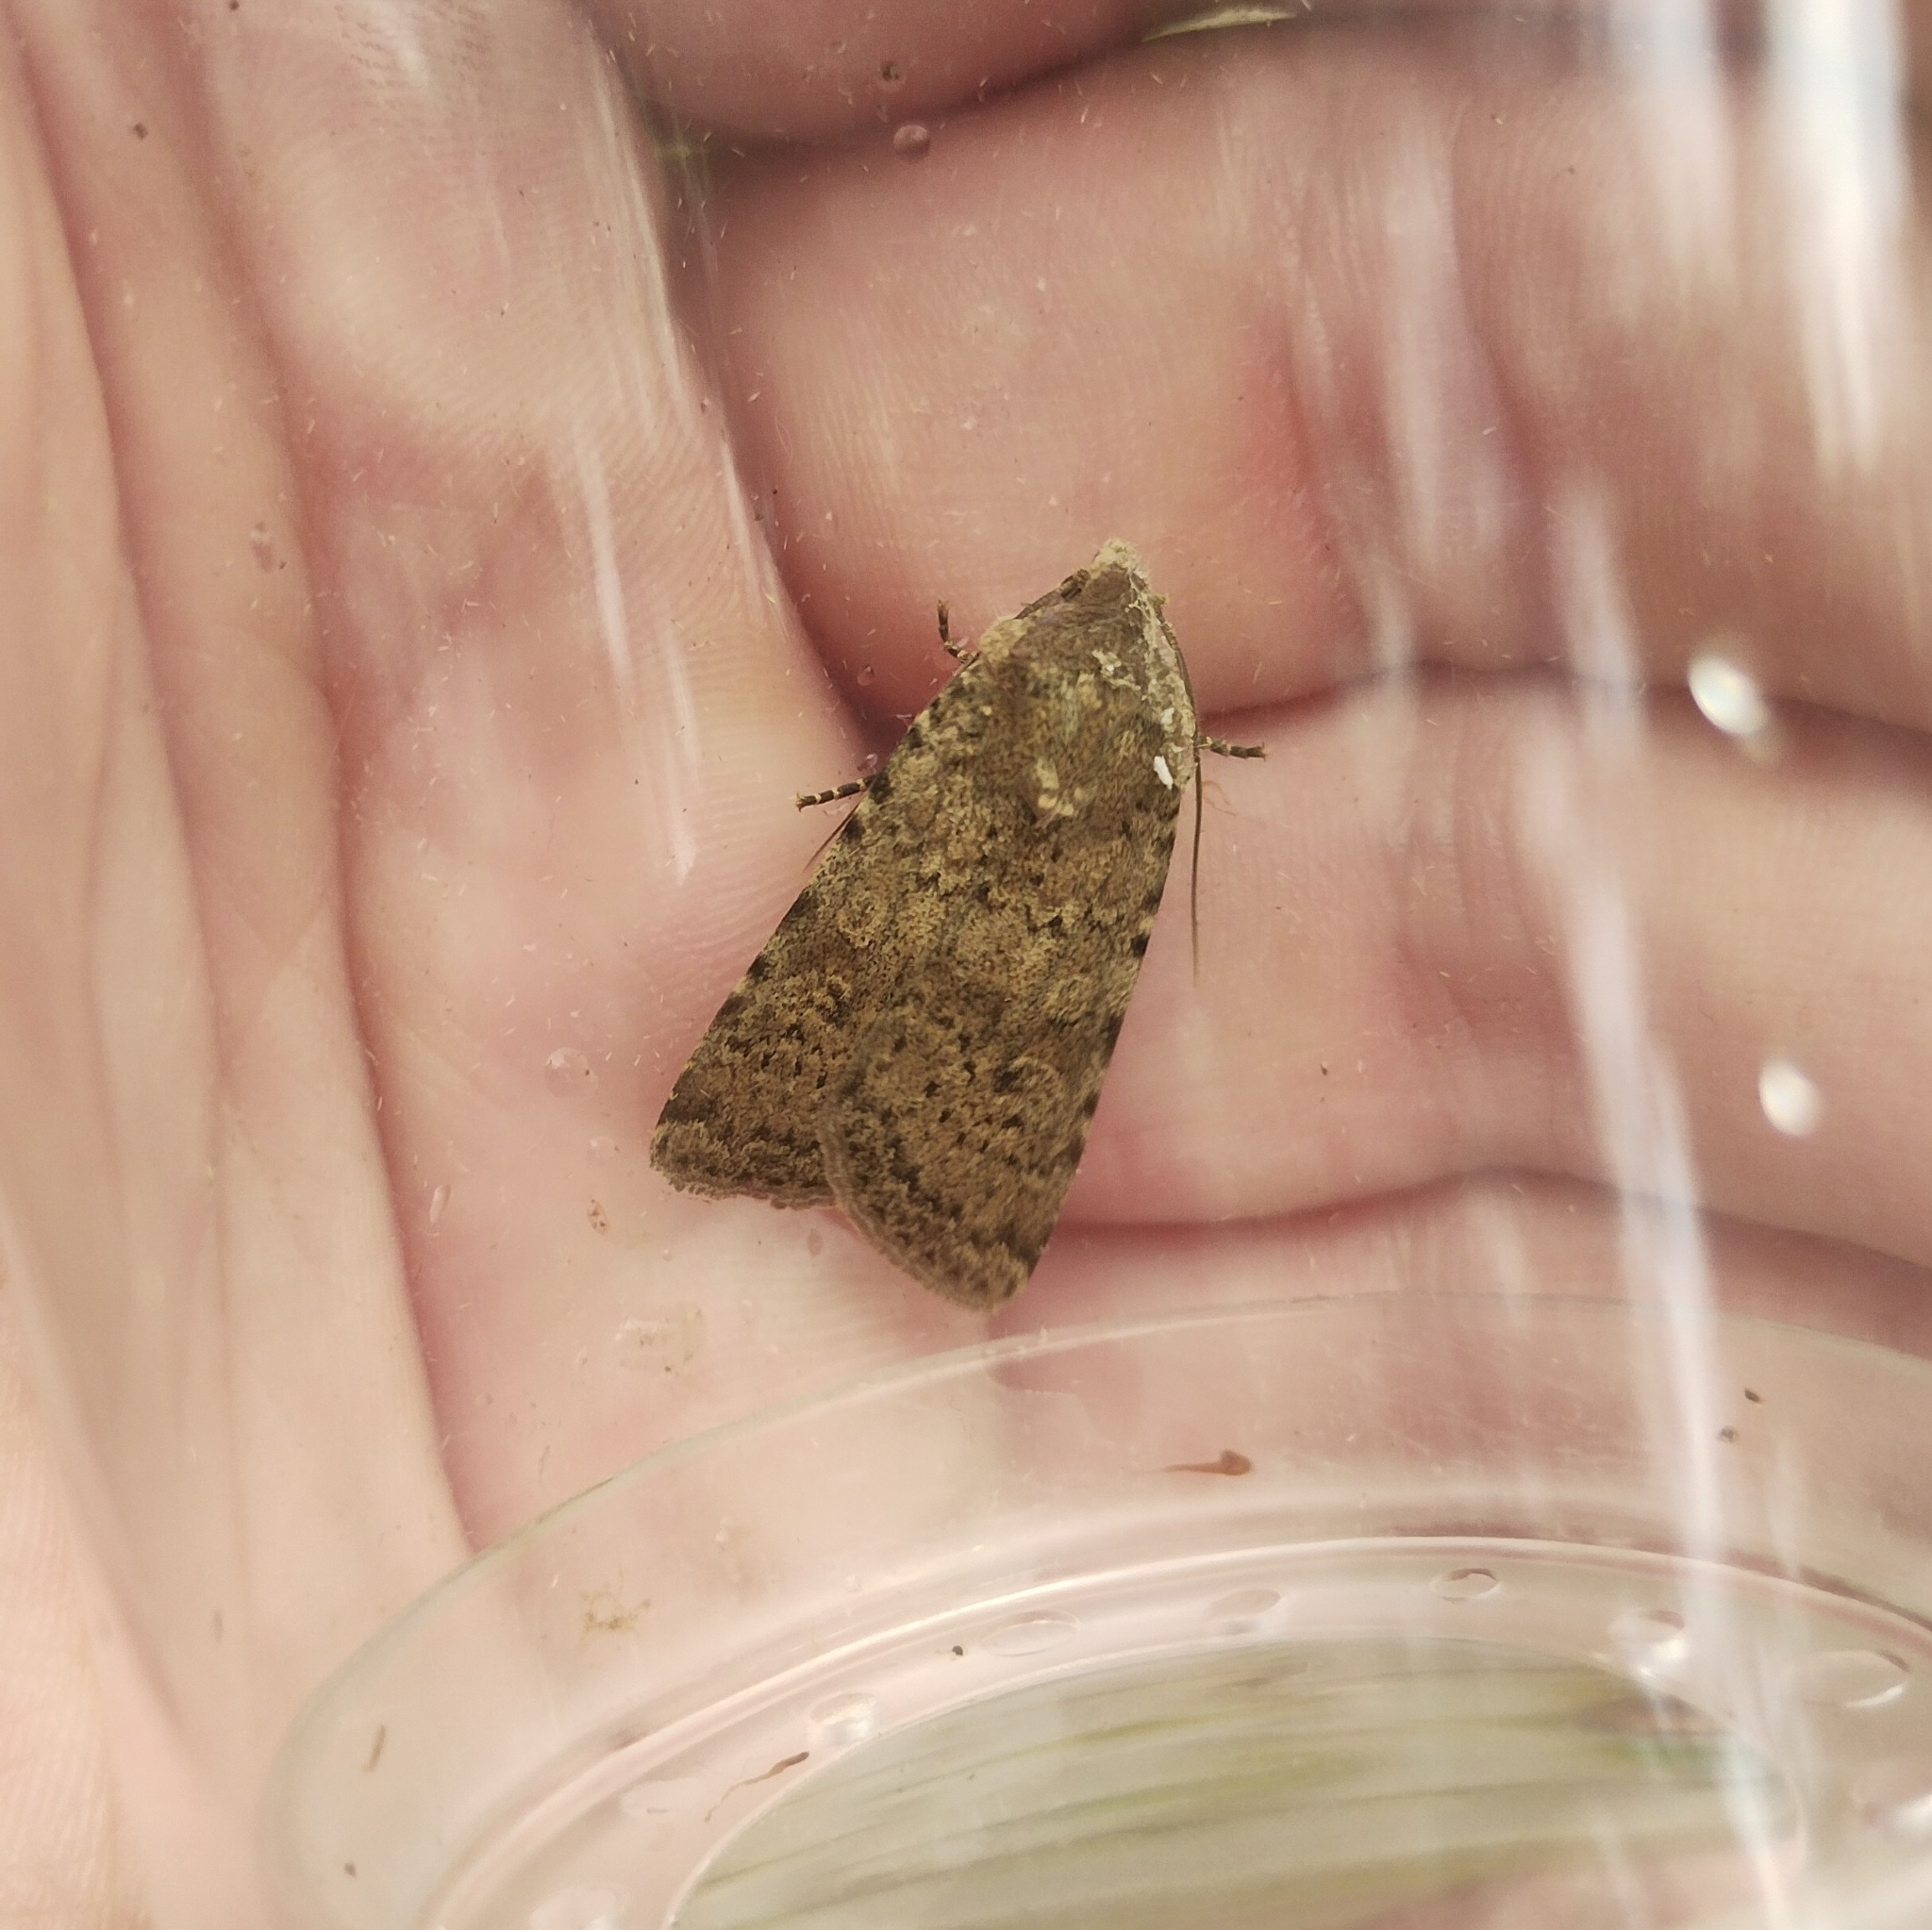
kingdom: Animalia
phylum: Arthropoda
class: Insecta
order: Lepidoptera
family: Noctuidae
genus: Rhyacia
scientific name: Rhyacia simulans
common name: Dotted rustic
